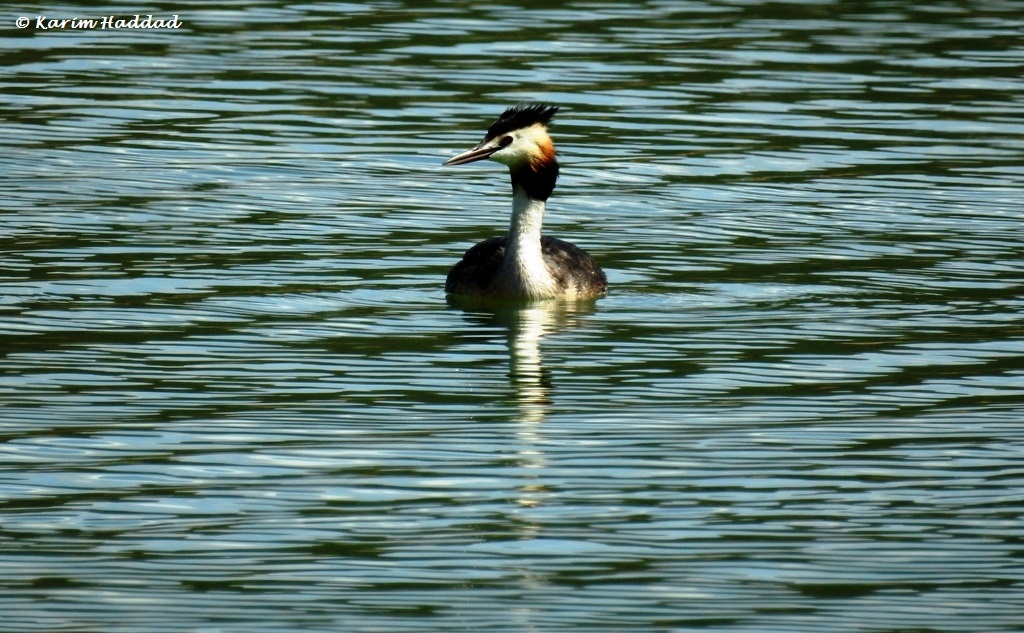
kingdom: Animalia
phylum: Chordata
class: Aves
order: Podicipediformes
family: Podicipedidae
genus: Podiceps
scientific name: Podiceps cristatus
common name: Great crested grebe
